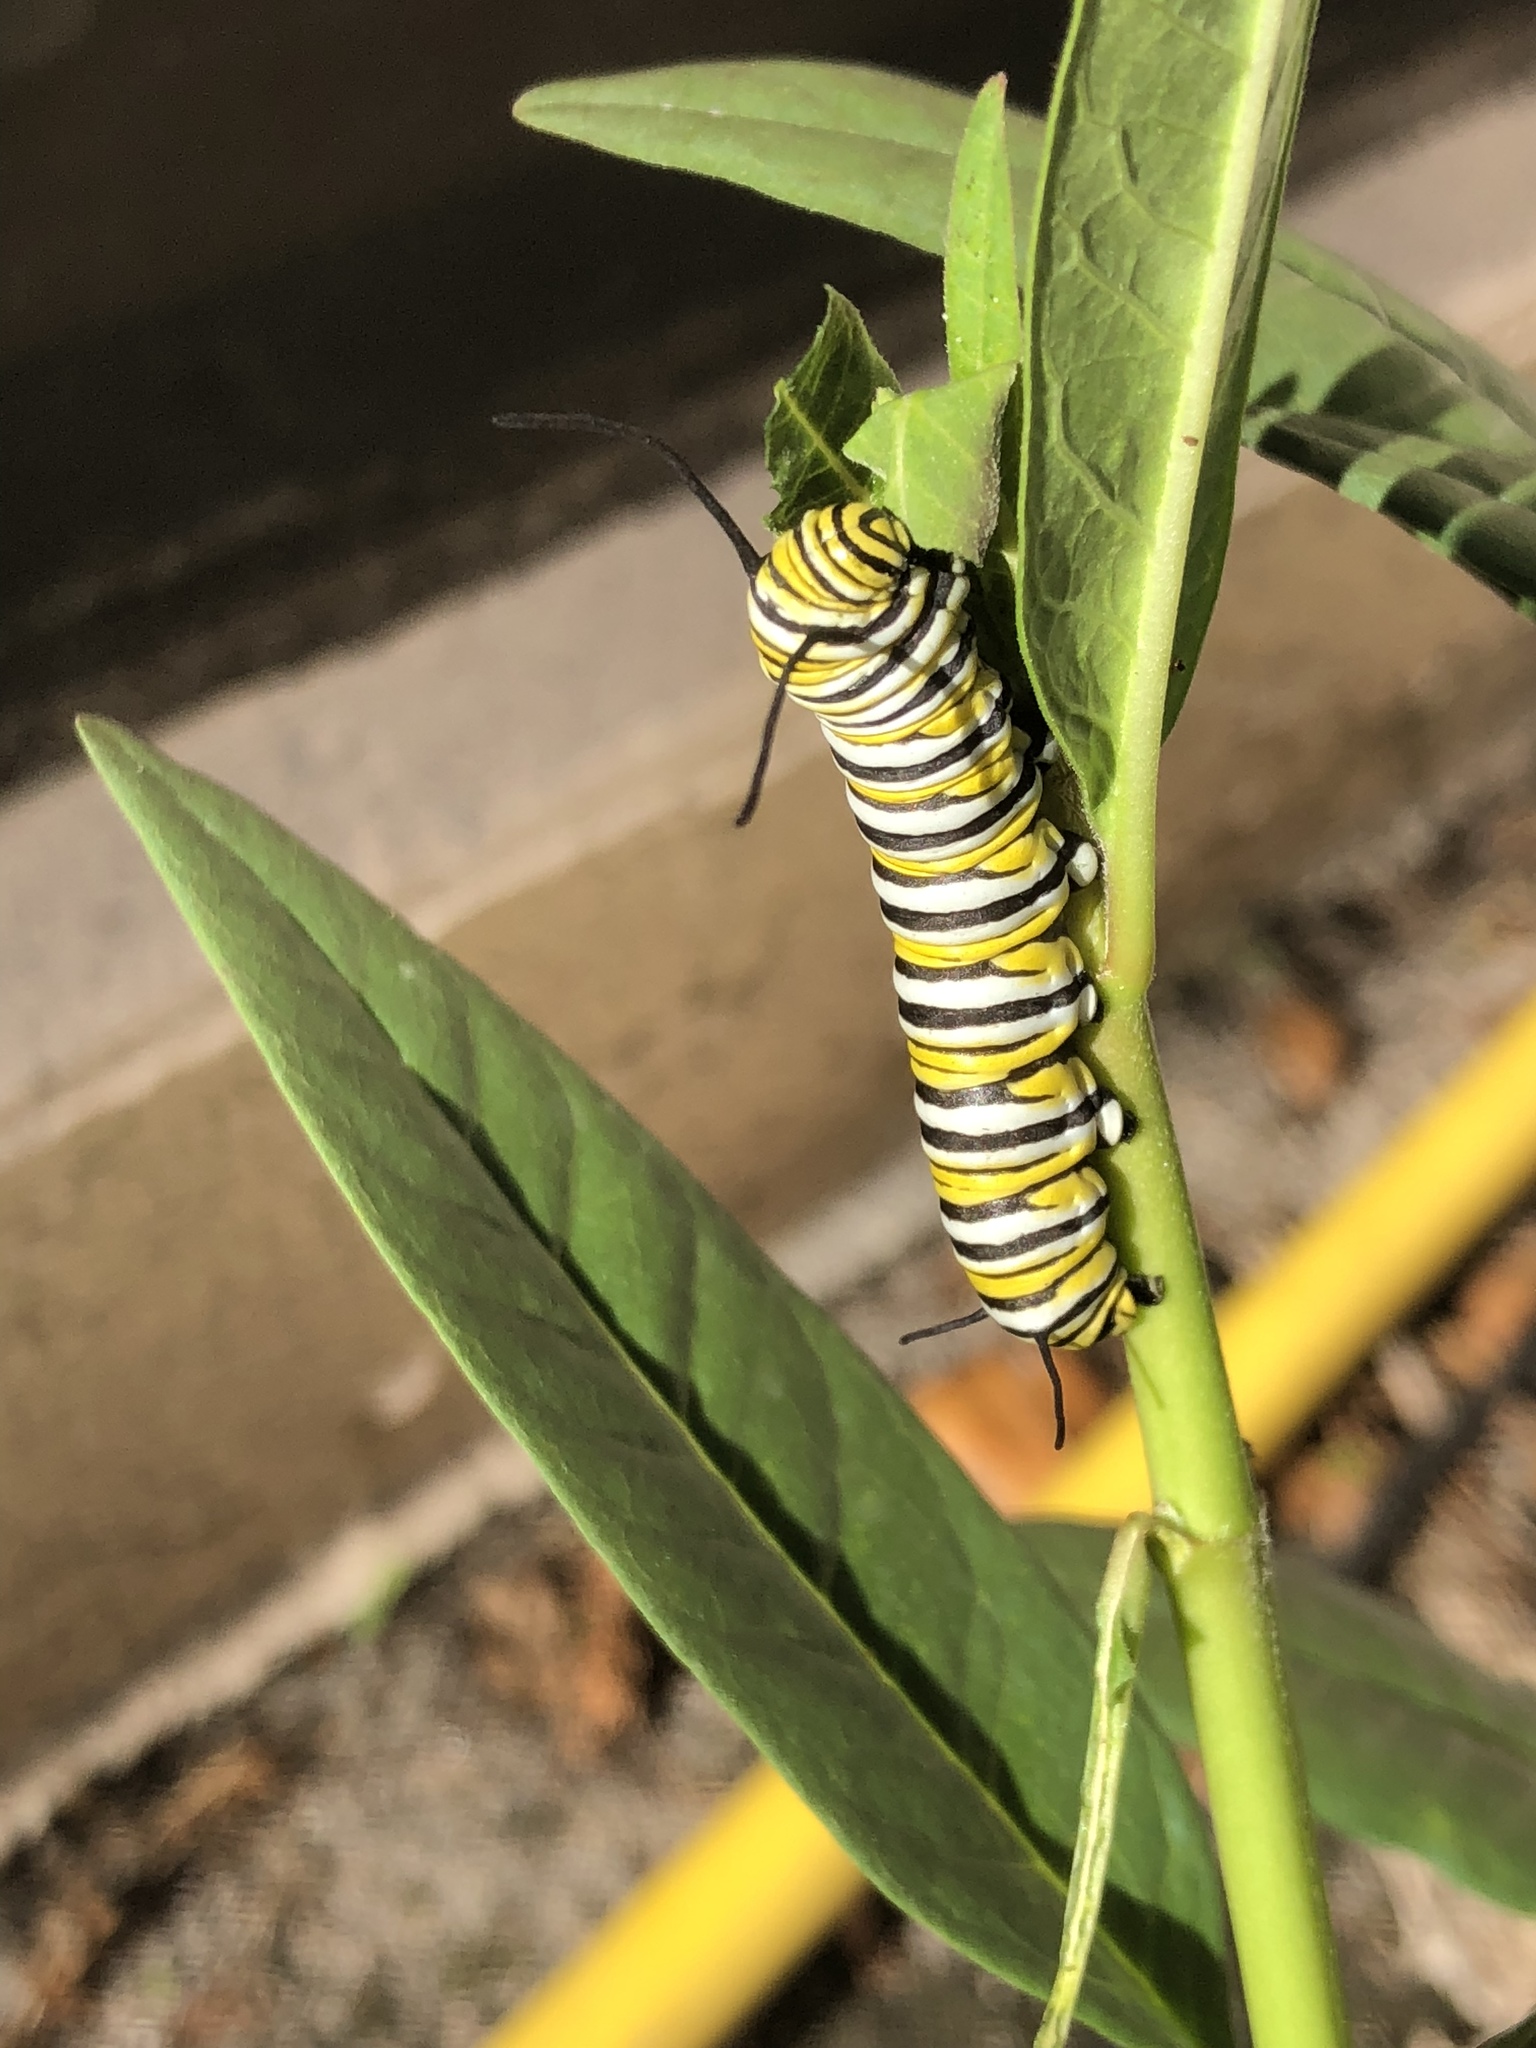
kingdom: Animalia
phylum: Arthropoda
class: Insecta
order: Lepidoptera
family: Nymphalidae
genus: Danaus
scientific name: Danaus plexippus
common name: Monarch
